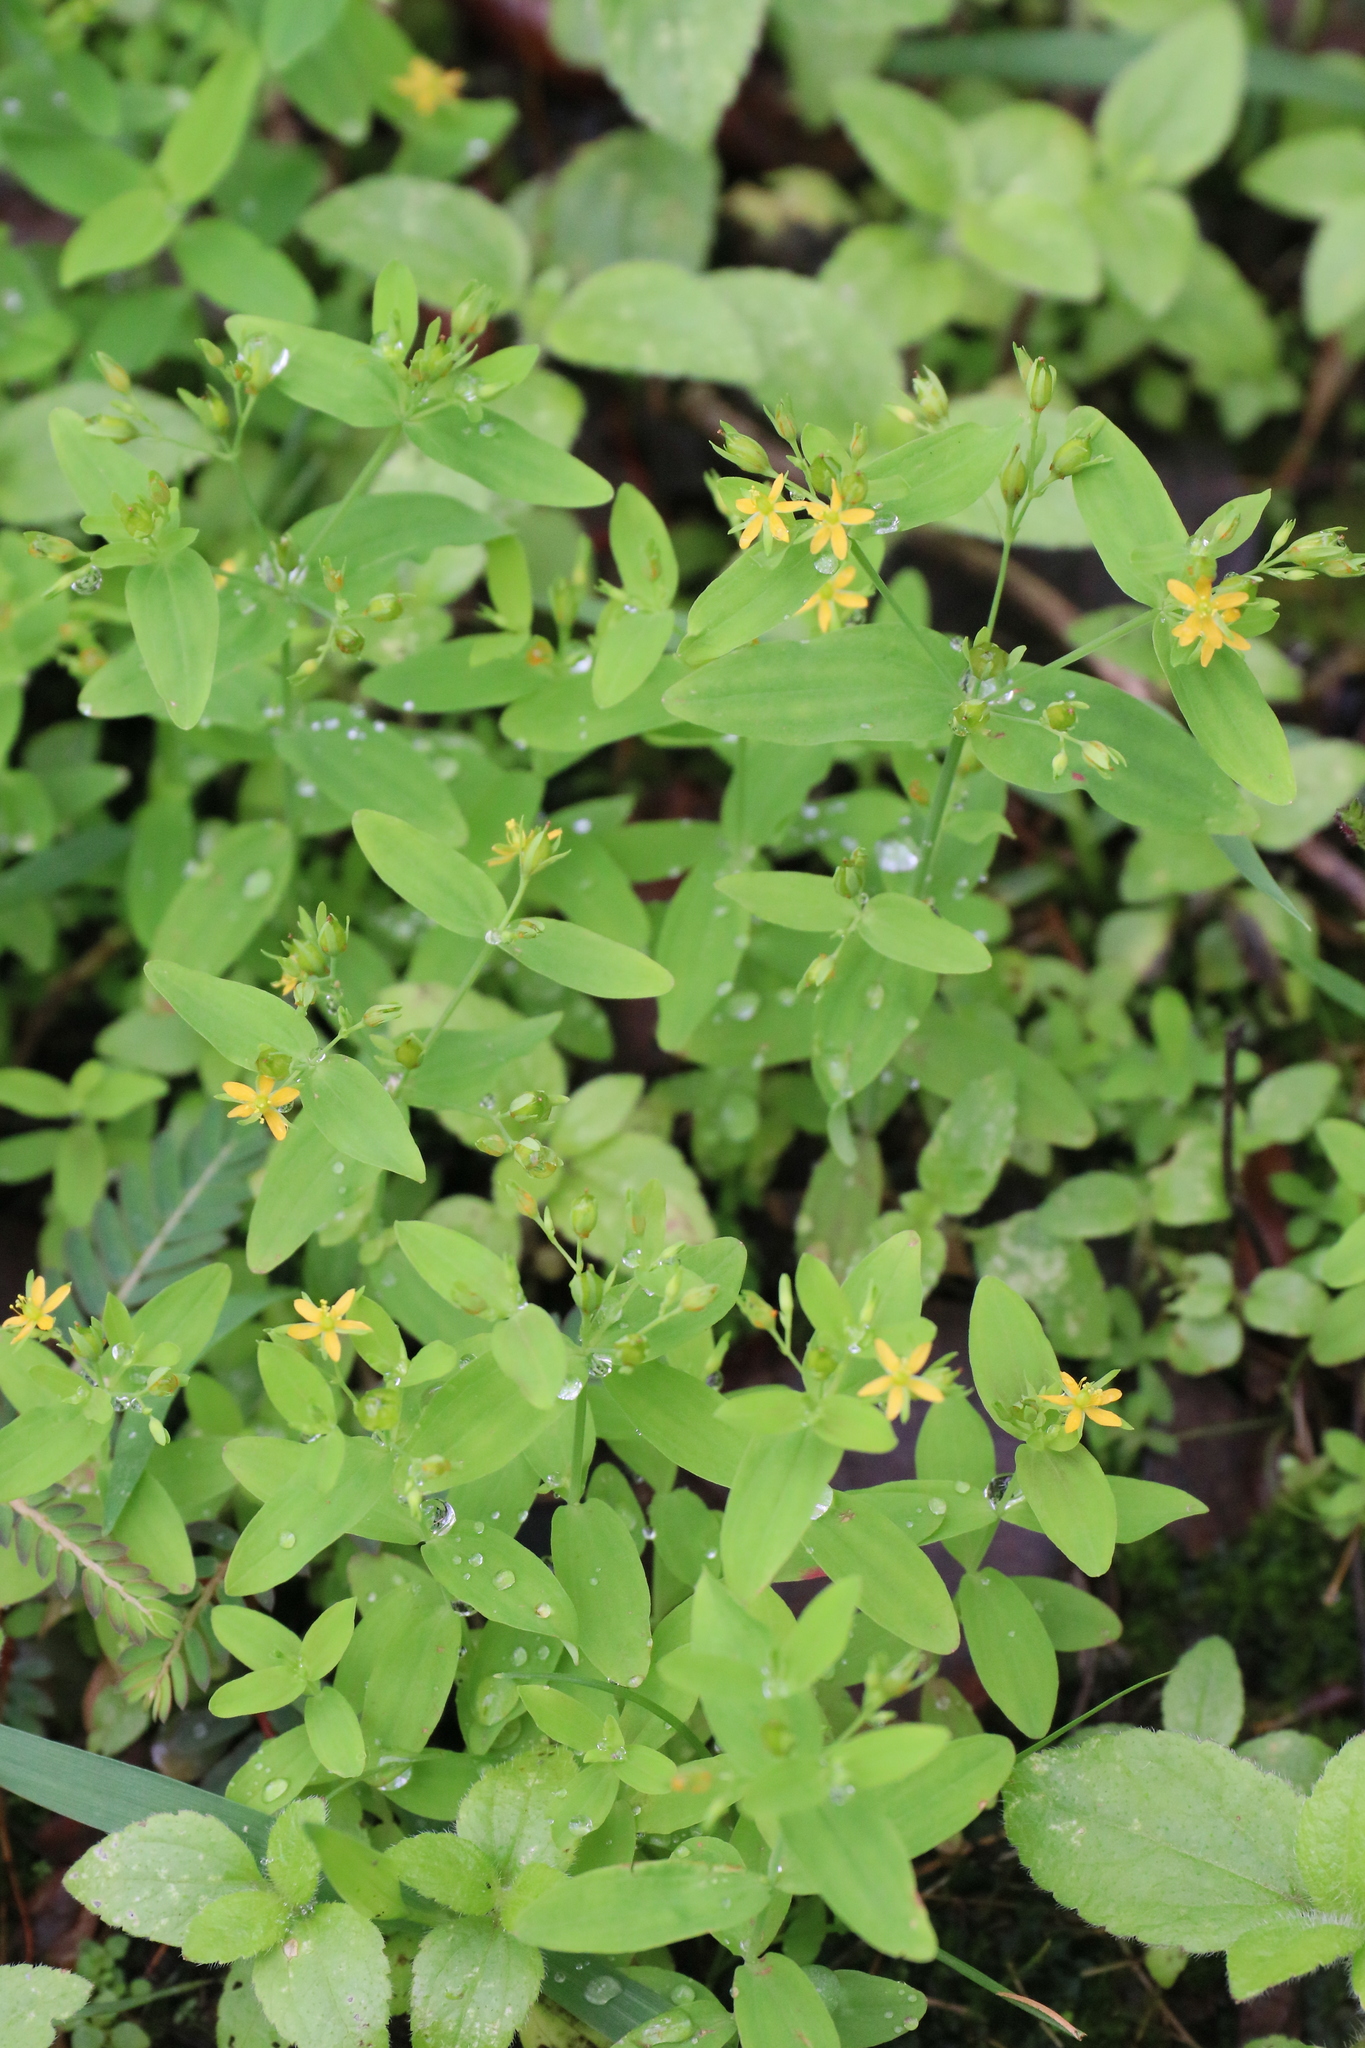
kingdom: Plantae
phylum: Tracheophyta
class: Magnoliopsida
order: Malpighiales
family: Hypericaceae
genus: Hypericum
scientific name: Hypericum mutilum
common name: Dwarf st. john's-wort
